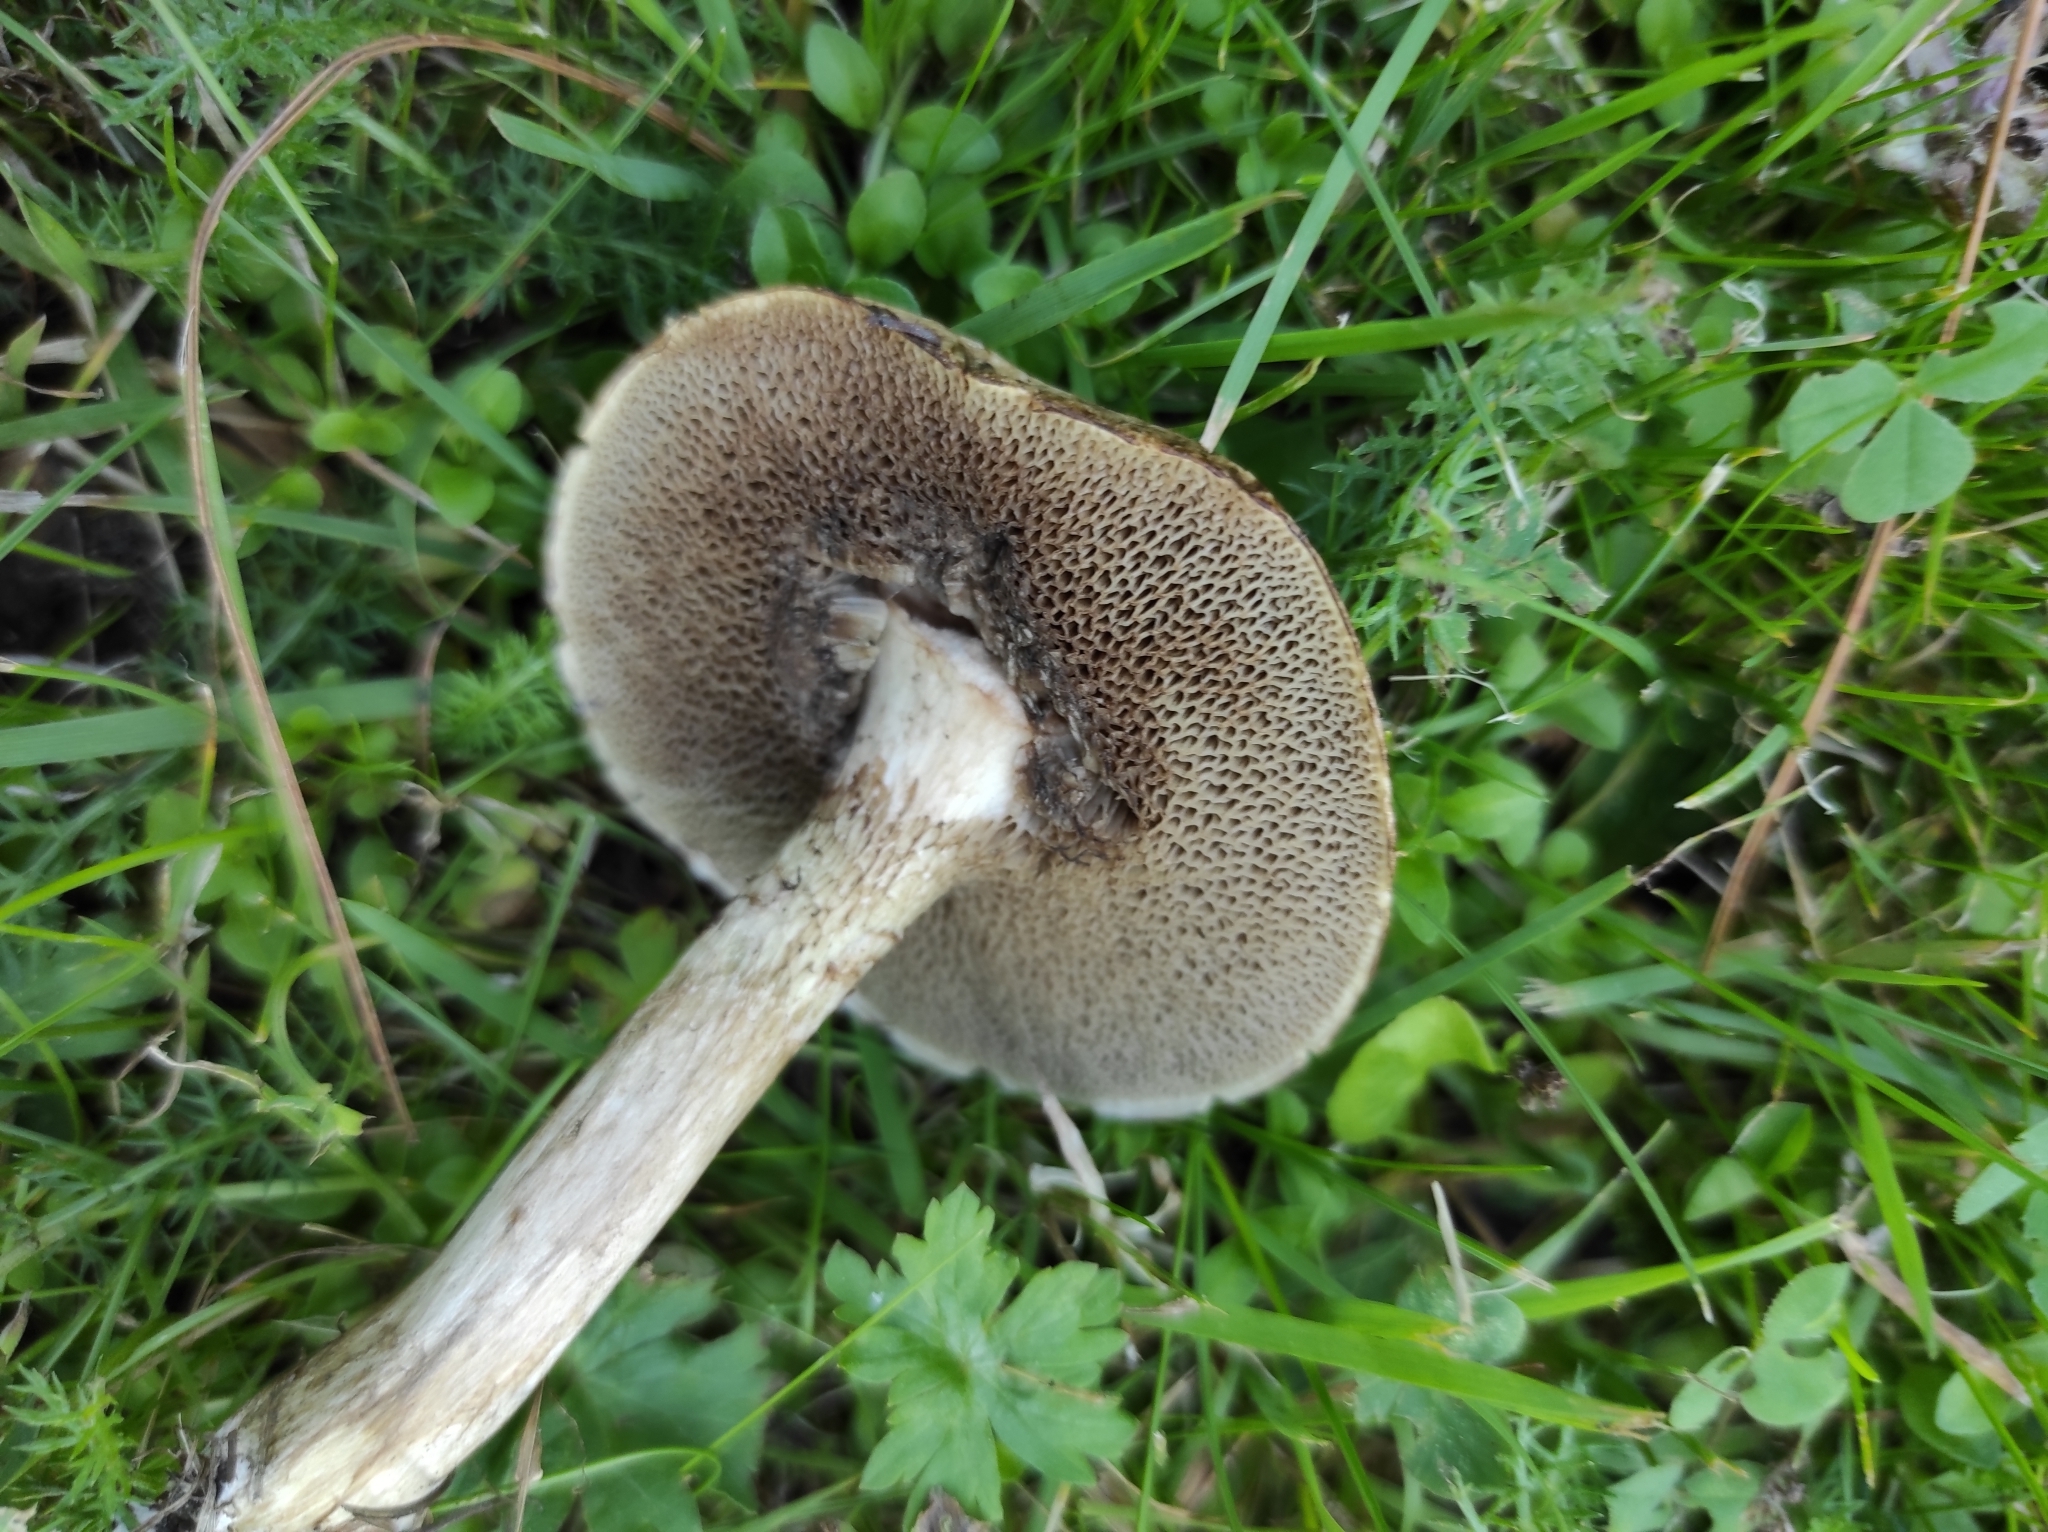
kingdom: Fungi
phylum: Basidiomycota
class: Agaricomycetes
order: Boletales
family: Suillaceae
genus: Suillus
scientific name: Suillus viscidus
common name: Sticky bolete
